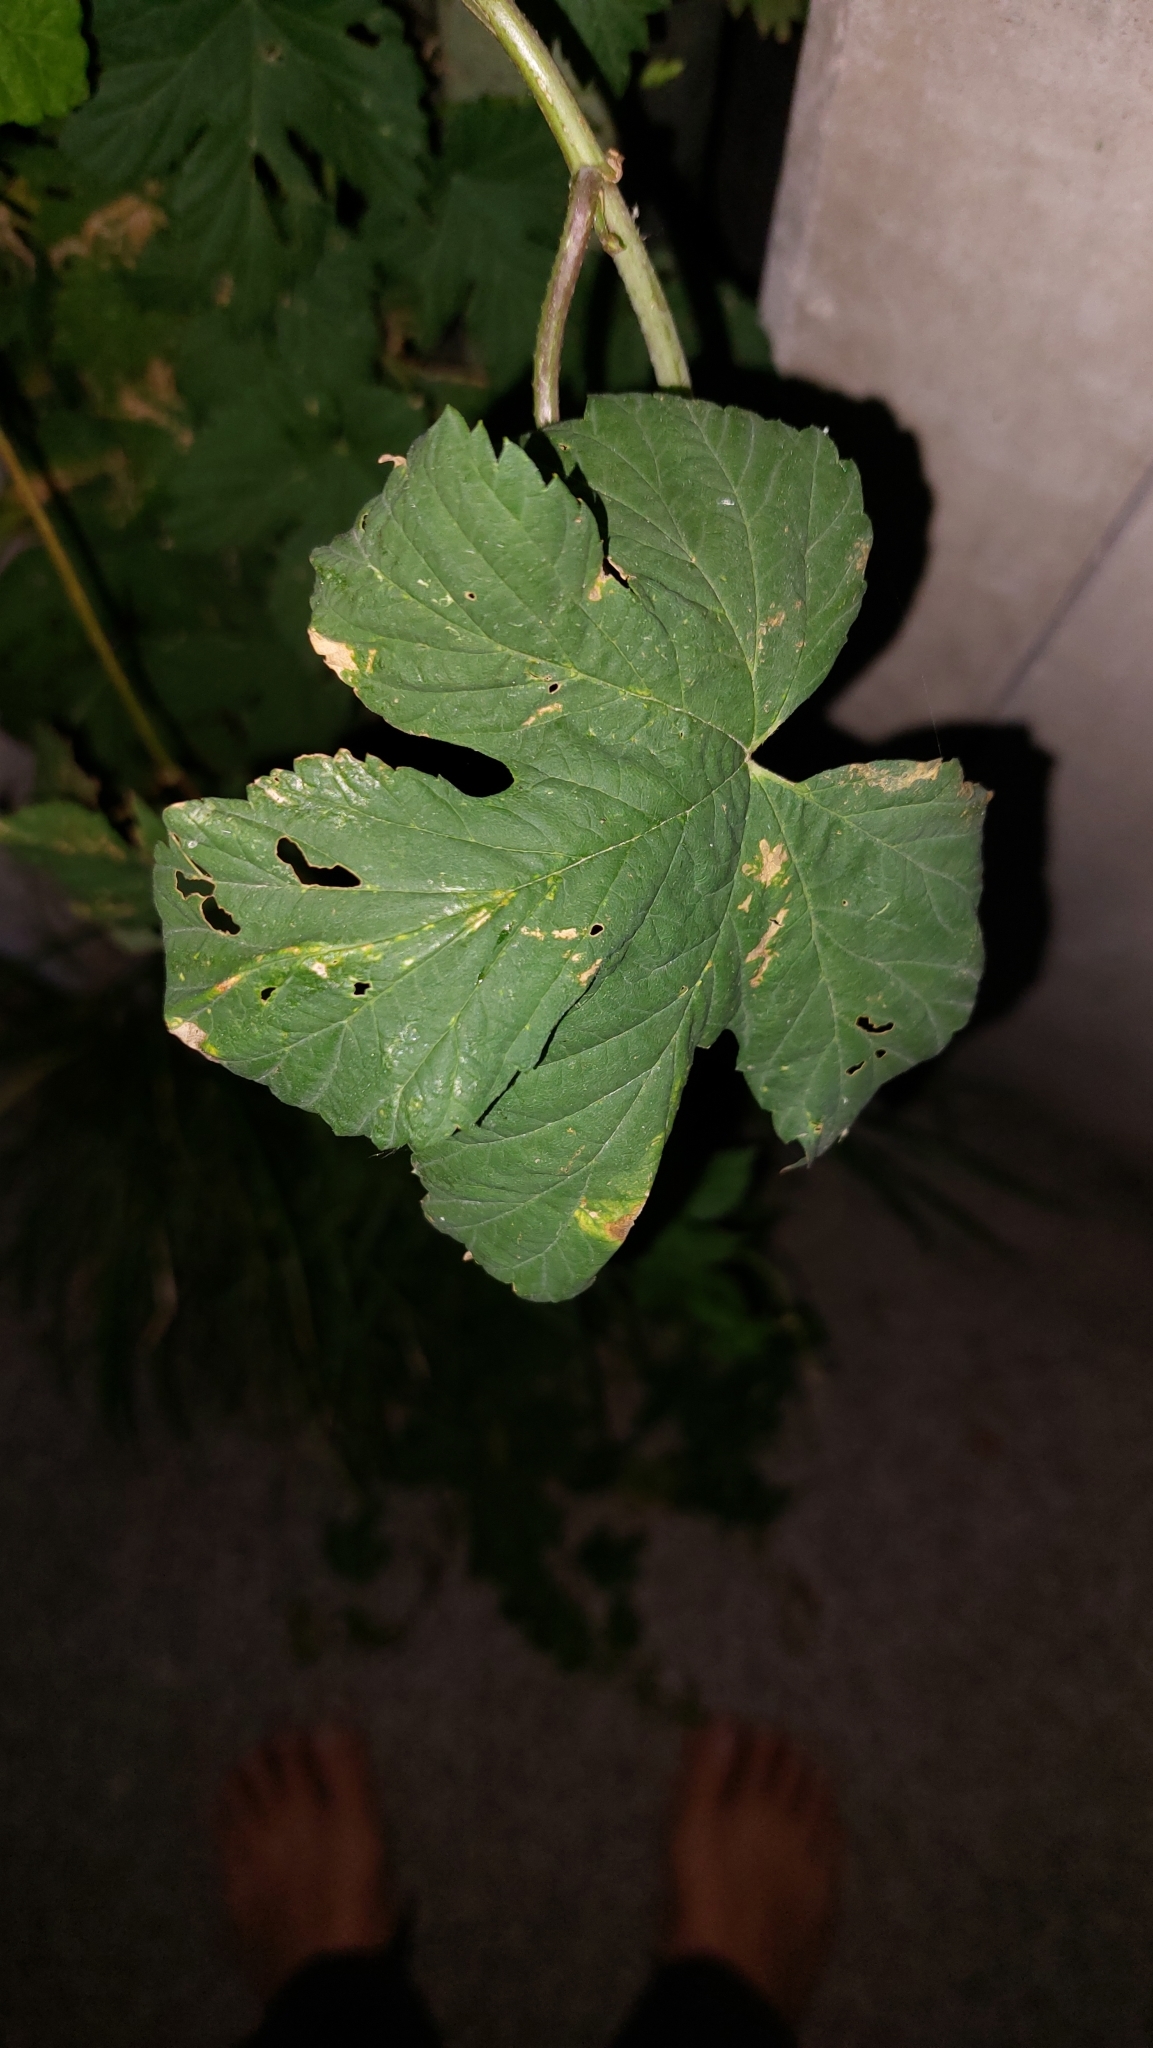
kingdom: Plantae
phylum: Tracheophyta
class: Magnoliopsida
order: Rosales
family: Cannabaceae
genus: Humulus
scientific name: Humulus lupulus
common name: Hop
